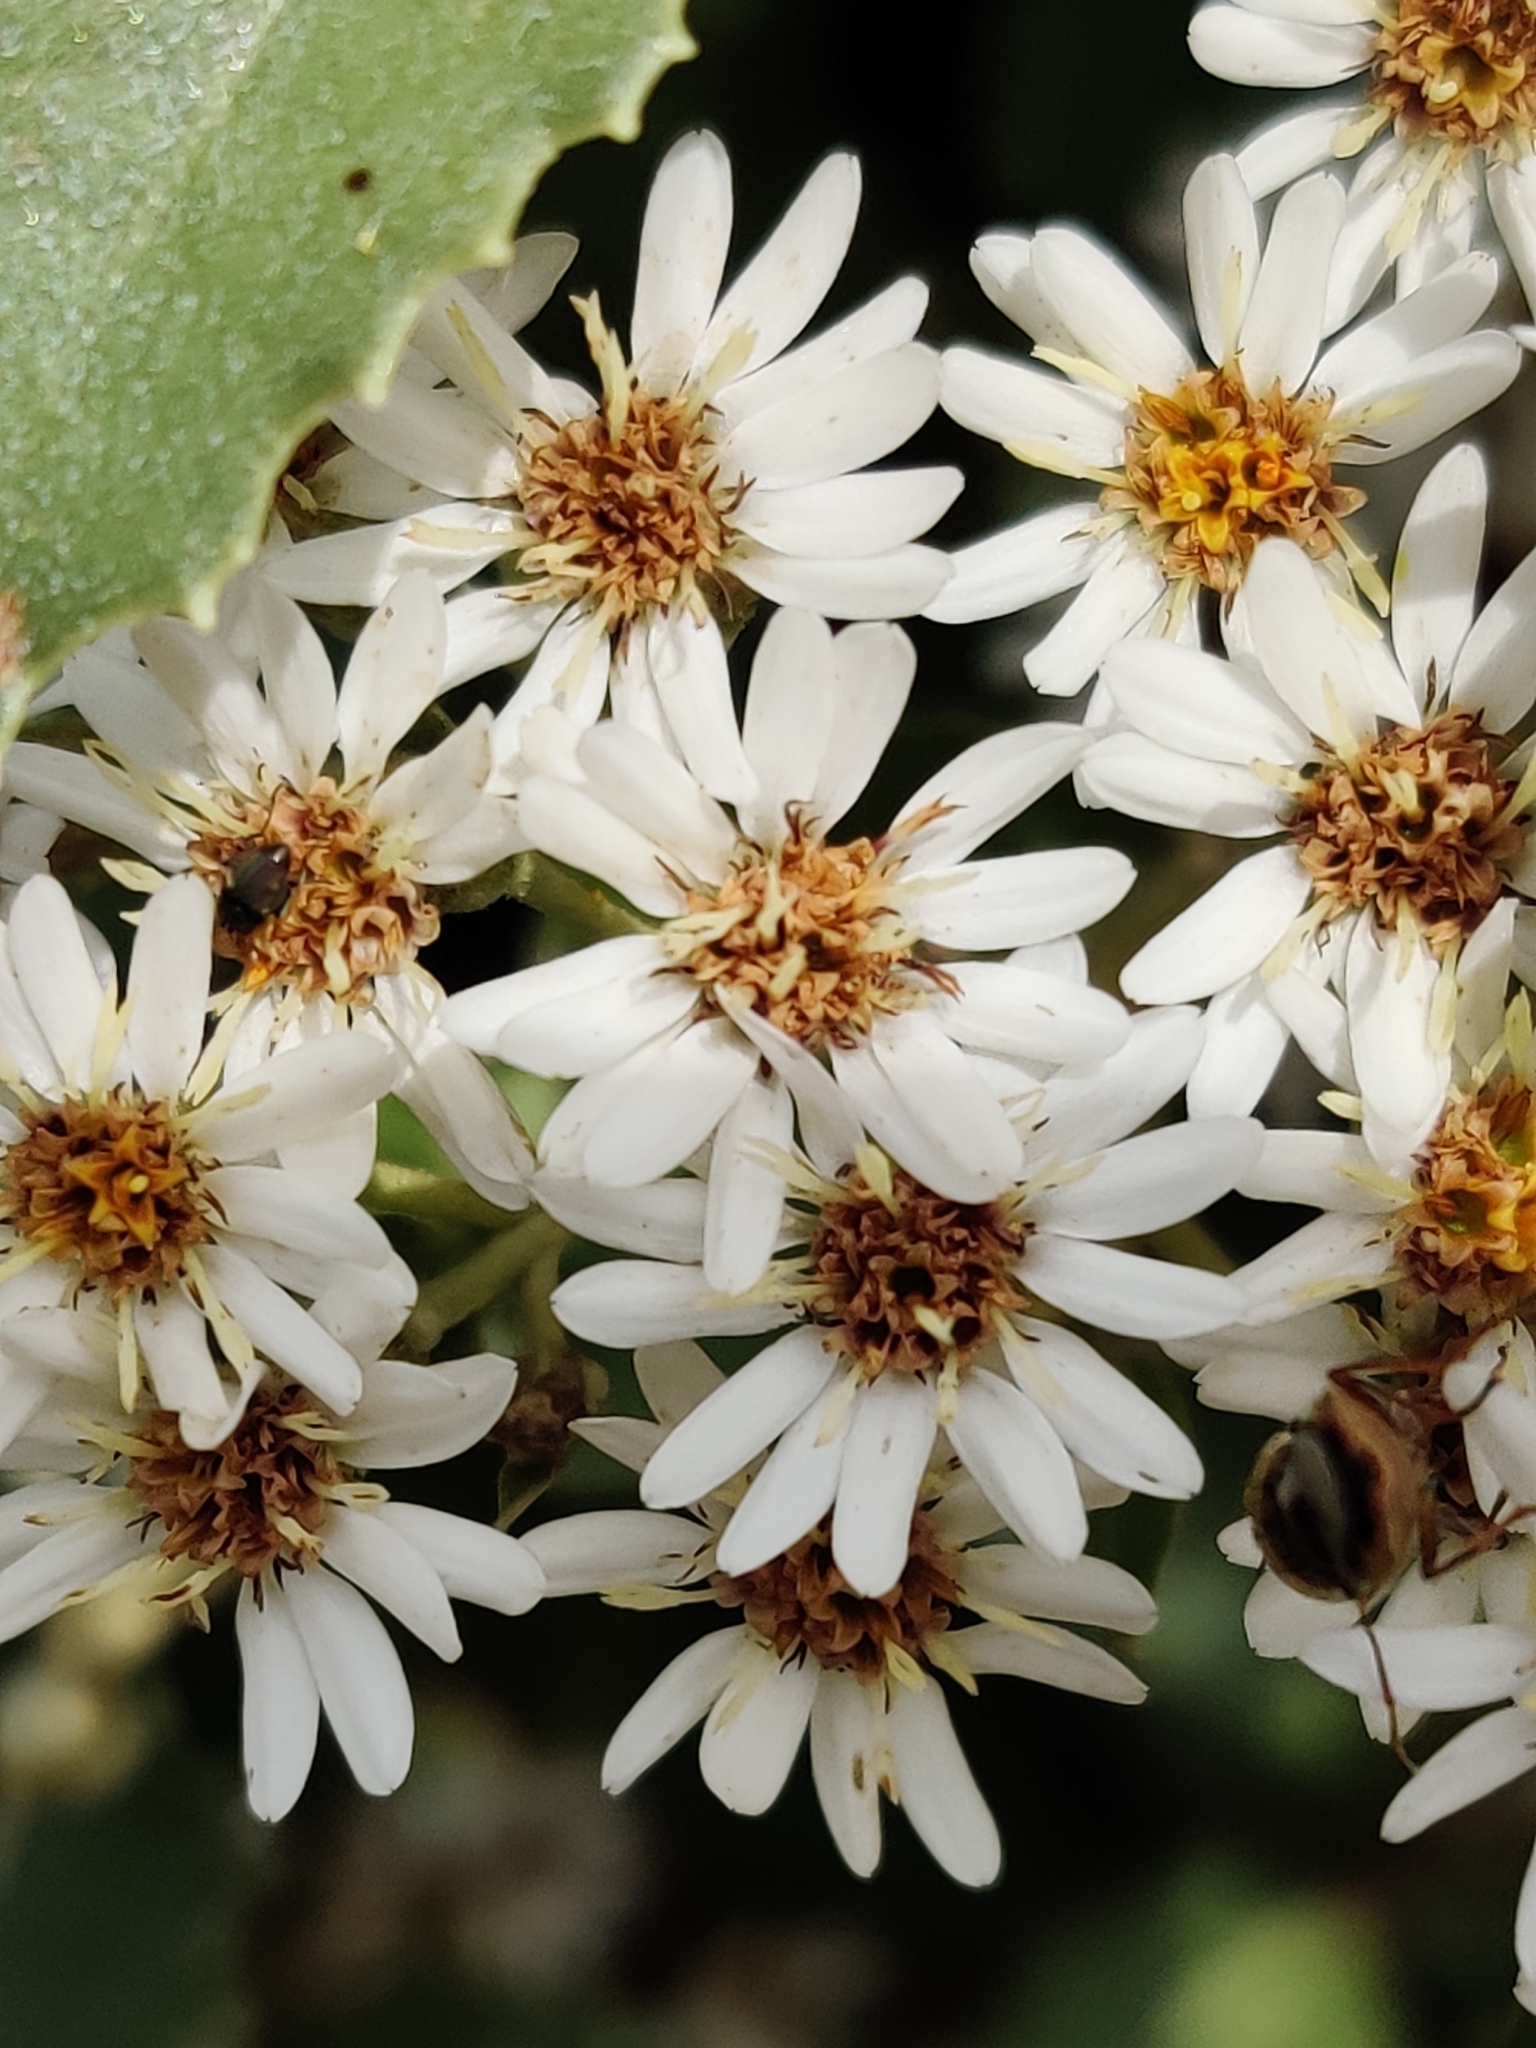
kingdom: Plantae
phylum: Tracheophyta
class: Magnoliopsida
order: Asterales
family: Asteraceae
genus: Olearia
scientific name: Olearia ilicifolia
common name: Maori-holly
